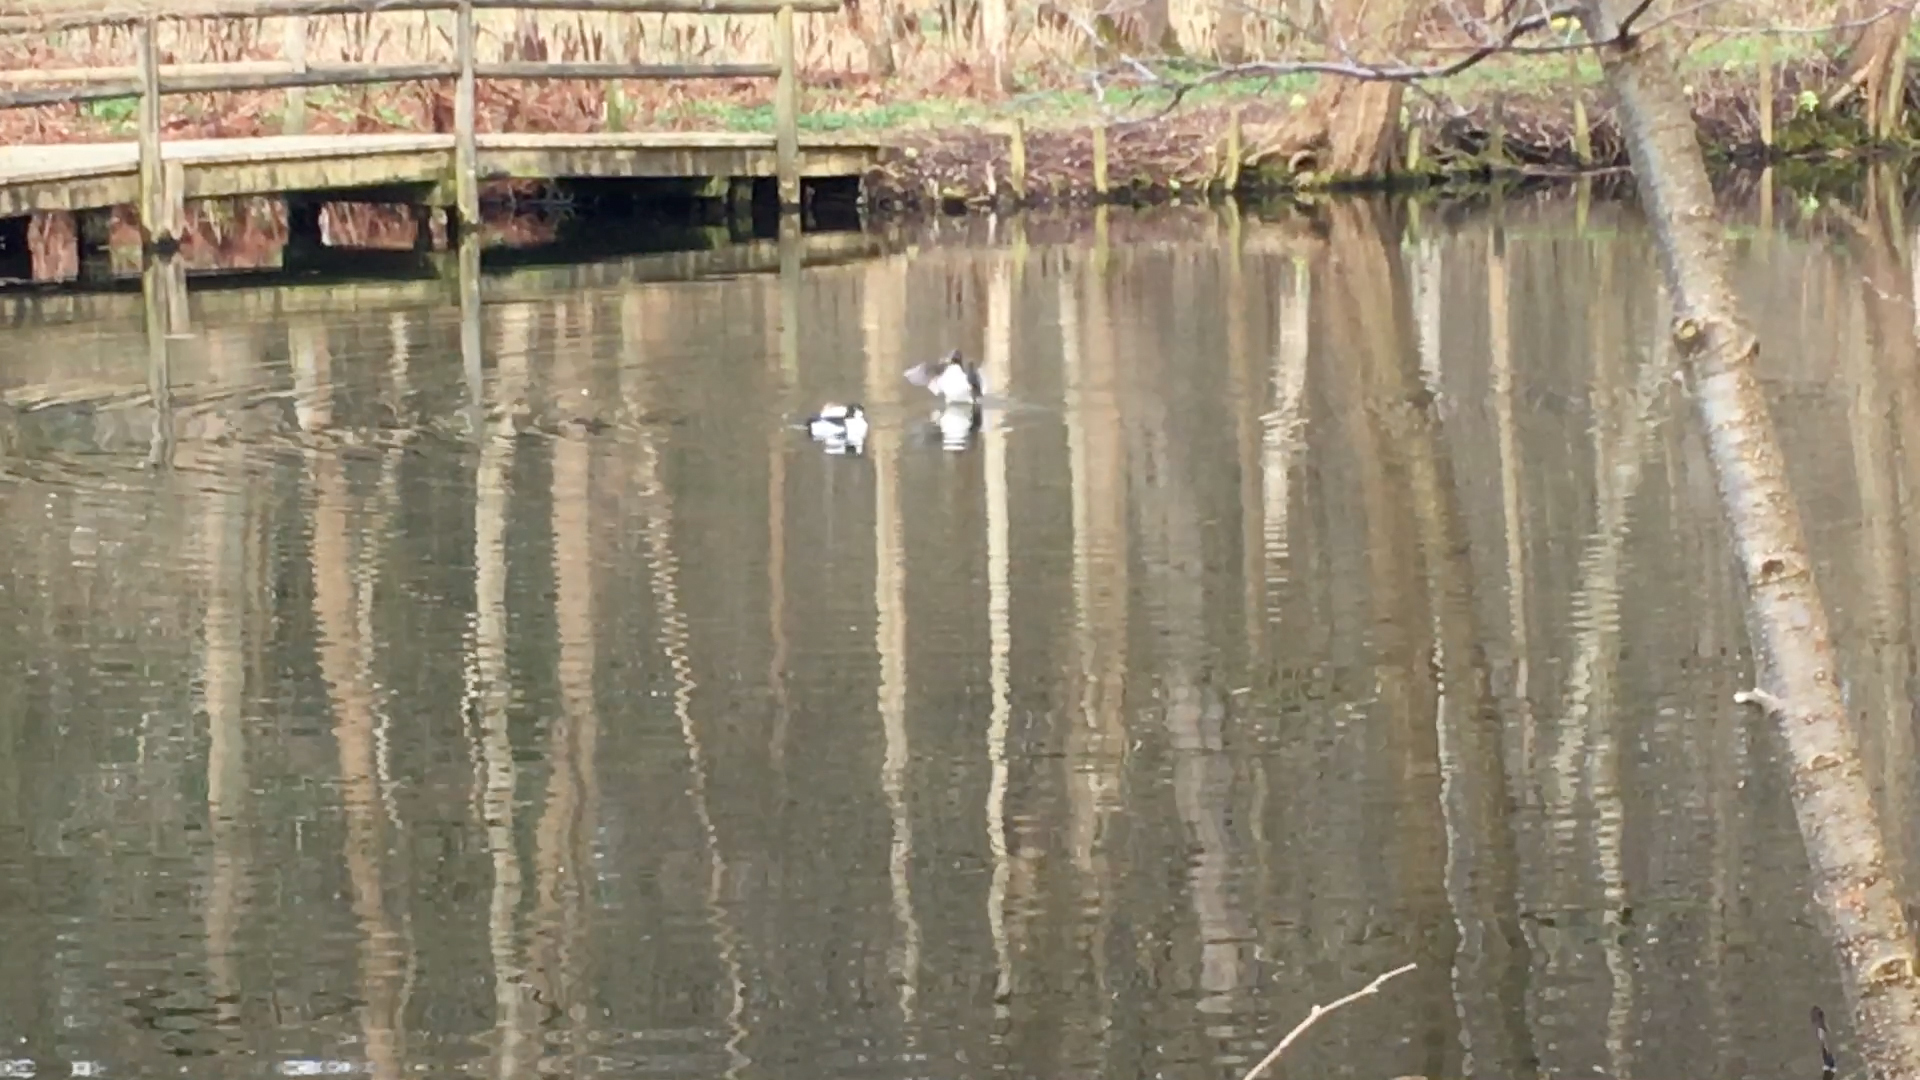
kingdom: Animalia
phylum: Chordata
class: Aves
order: Anseriformes
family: Anatidae
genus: Bucephala
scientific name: Bucephala clangula
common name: Common goldeneye
